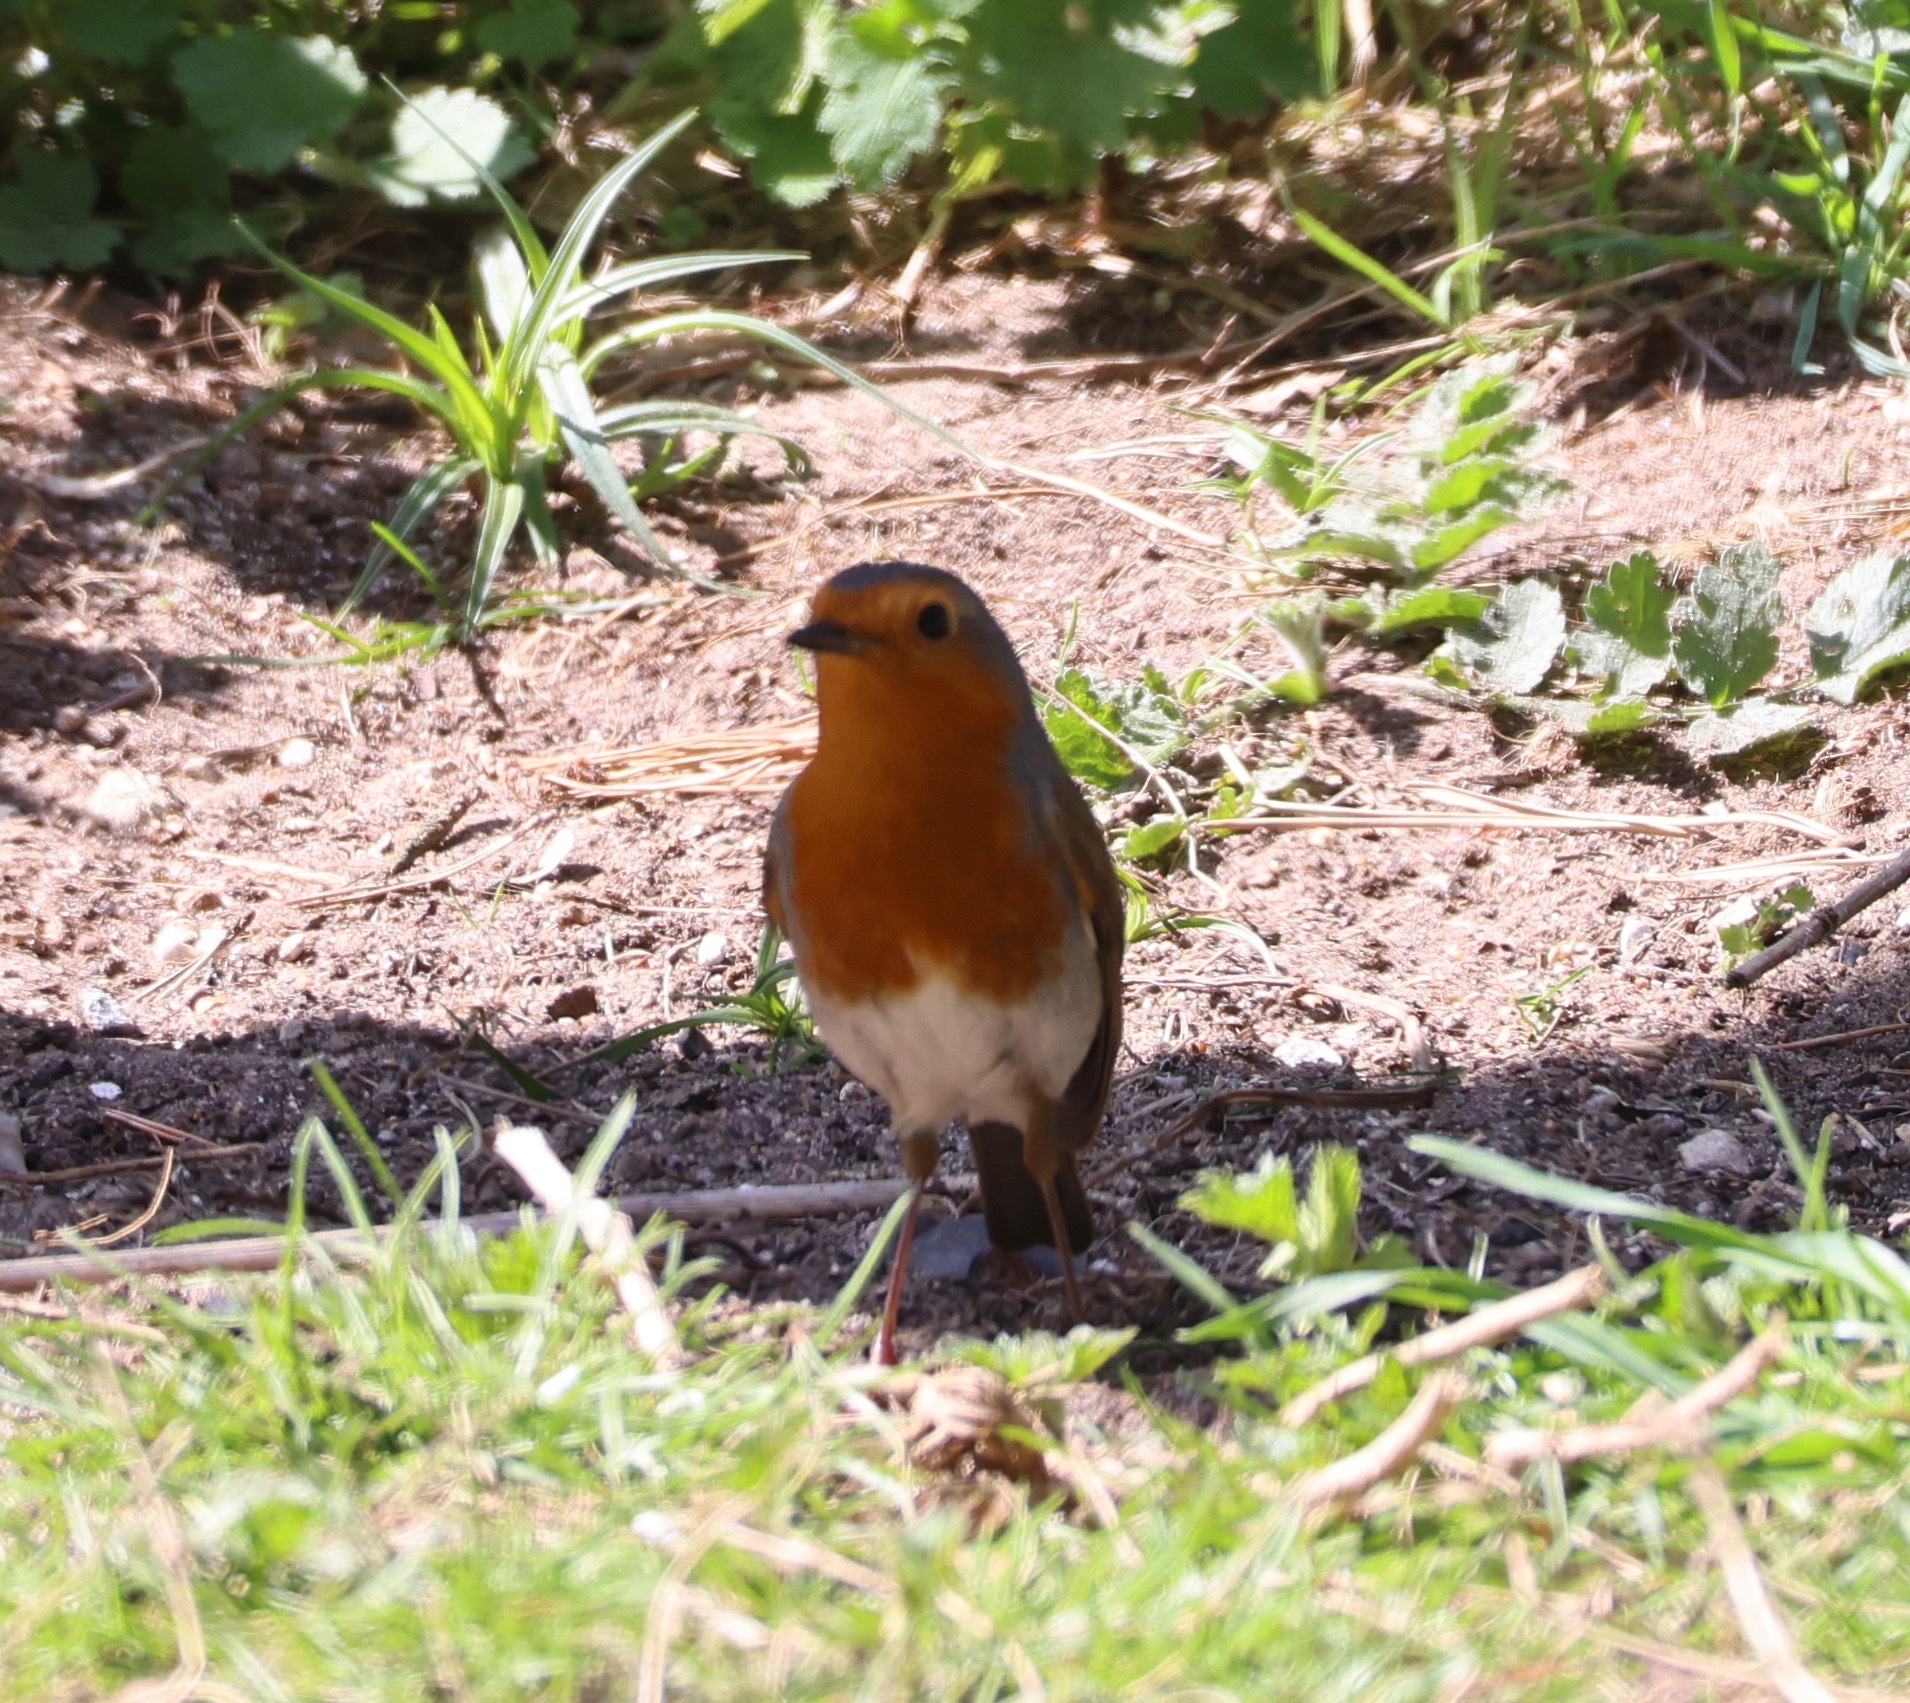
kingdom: Animalia
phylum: Chordata
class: Aves
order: Passeriformes
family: Muscicapidae
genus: Erithacus
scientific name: Erithacus rubecula
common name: European robin
